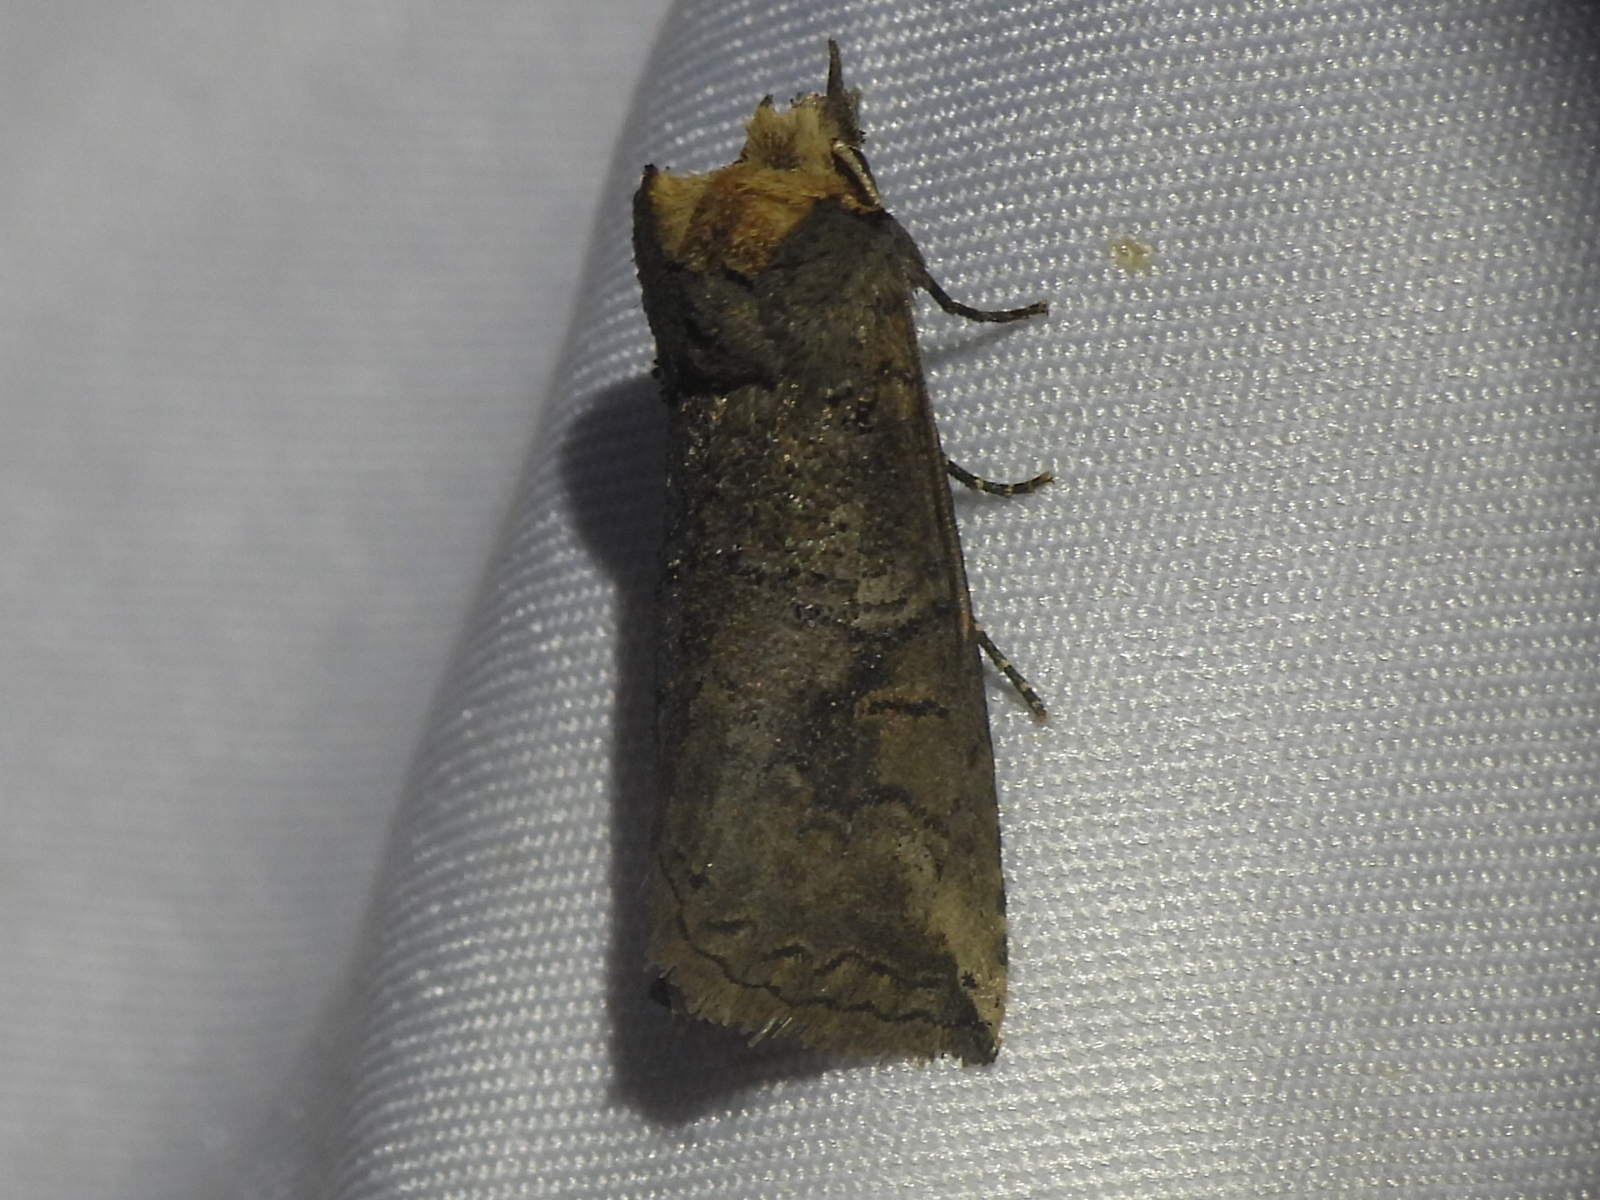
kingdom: Animalia
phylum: Arthropoda
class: Insecta
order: Lepidoptera
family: Notodontidae
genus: Elasmia
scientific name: Elasmia packardii
